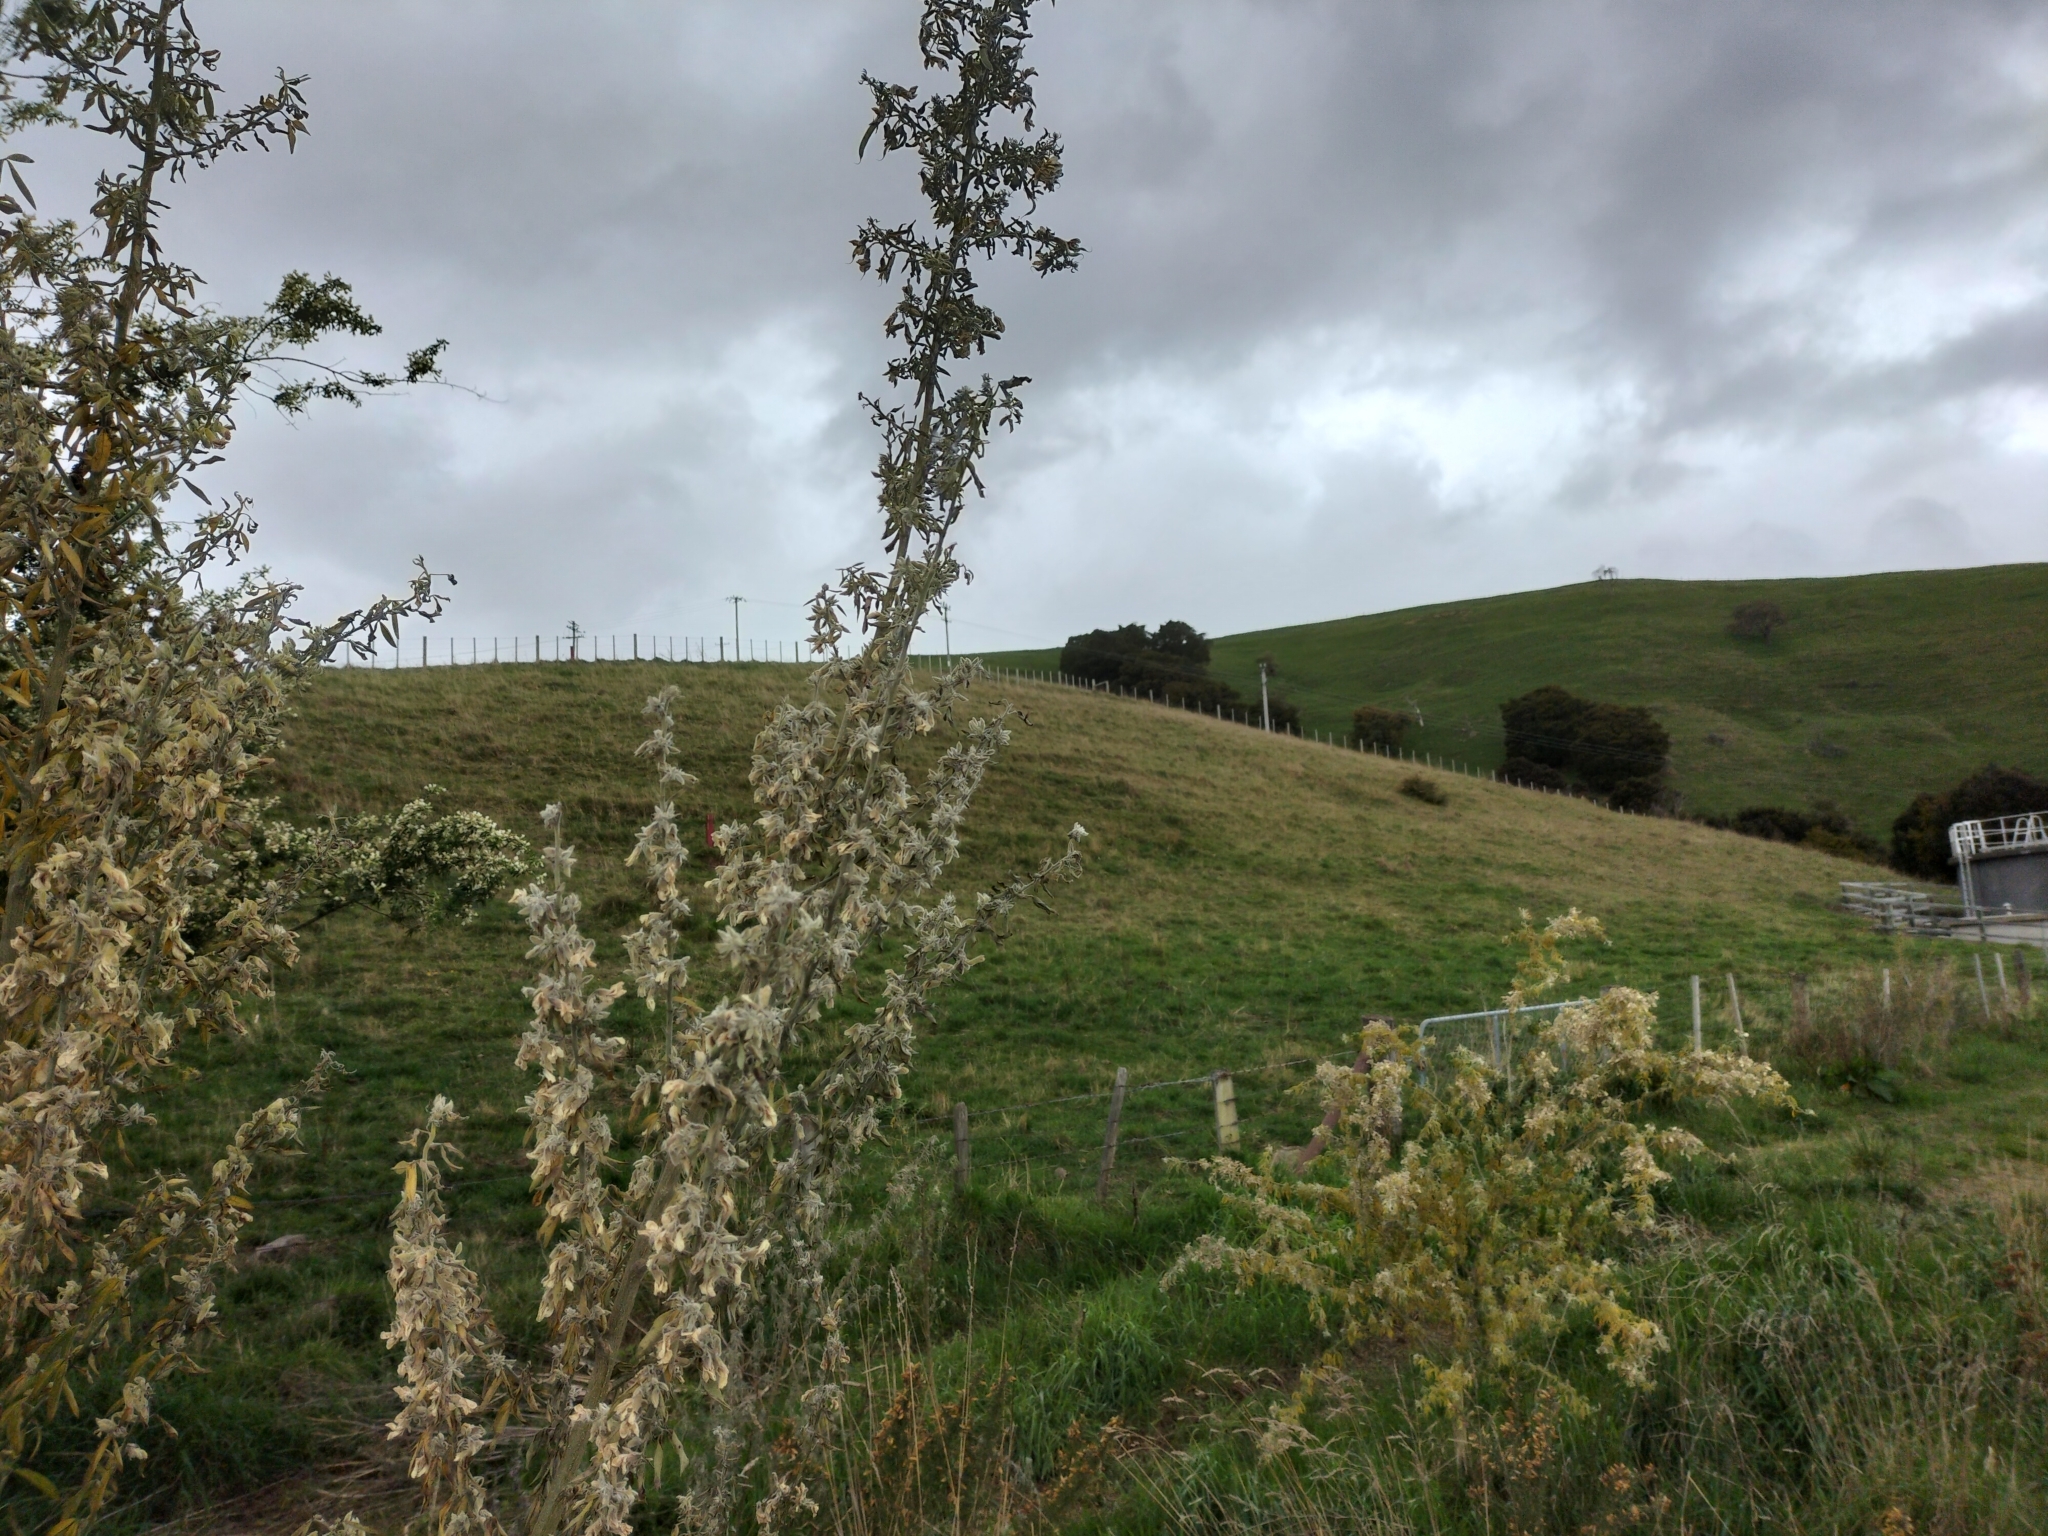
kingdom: Plantae
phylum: Tracheophyta
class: Magnoliopsida
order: Fabales
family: Fabaceae
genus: Chamaecytisus
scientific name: Chamaecytisus prolifer
